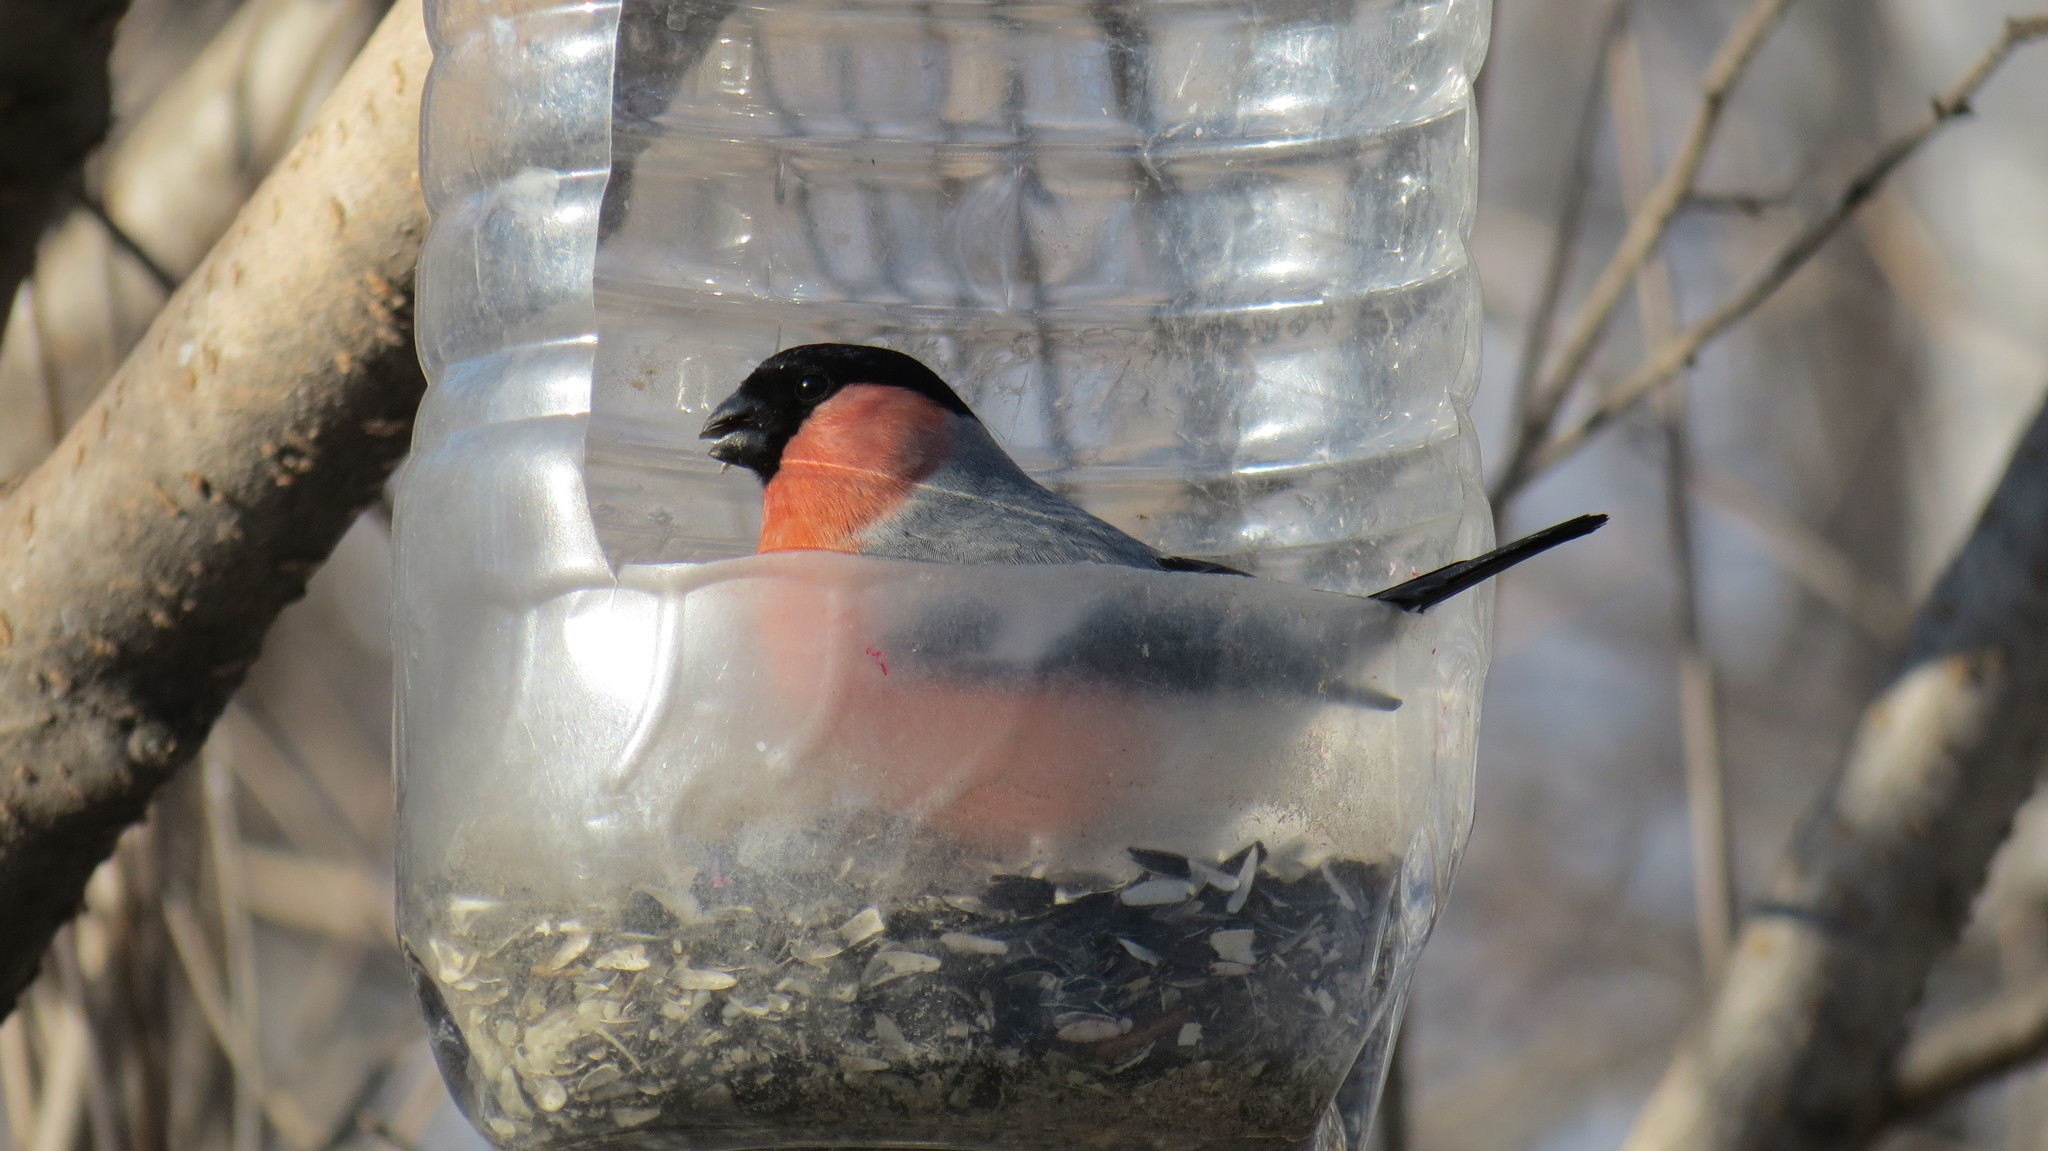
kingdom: Animalia
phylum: Chordata
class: Aves
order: Passeriformes
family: Fringillidae
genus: Pyrrhula
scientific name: Pyrrhula pyrrhula
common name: Eurasian bullfinch
